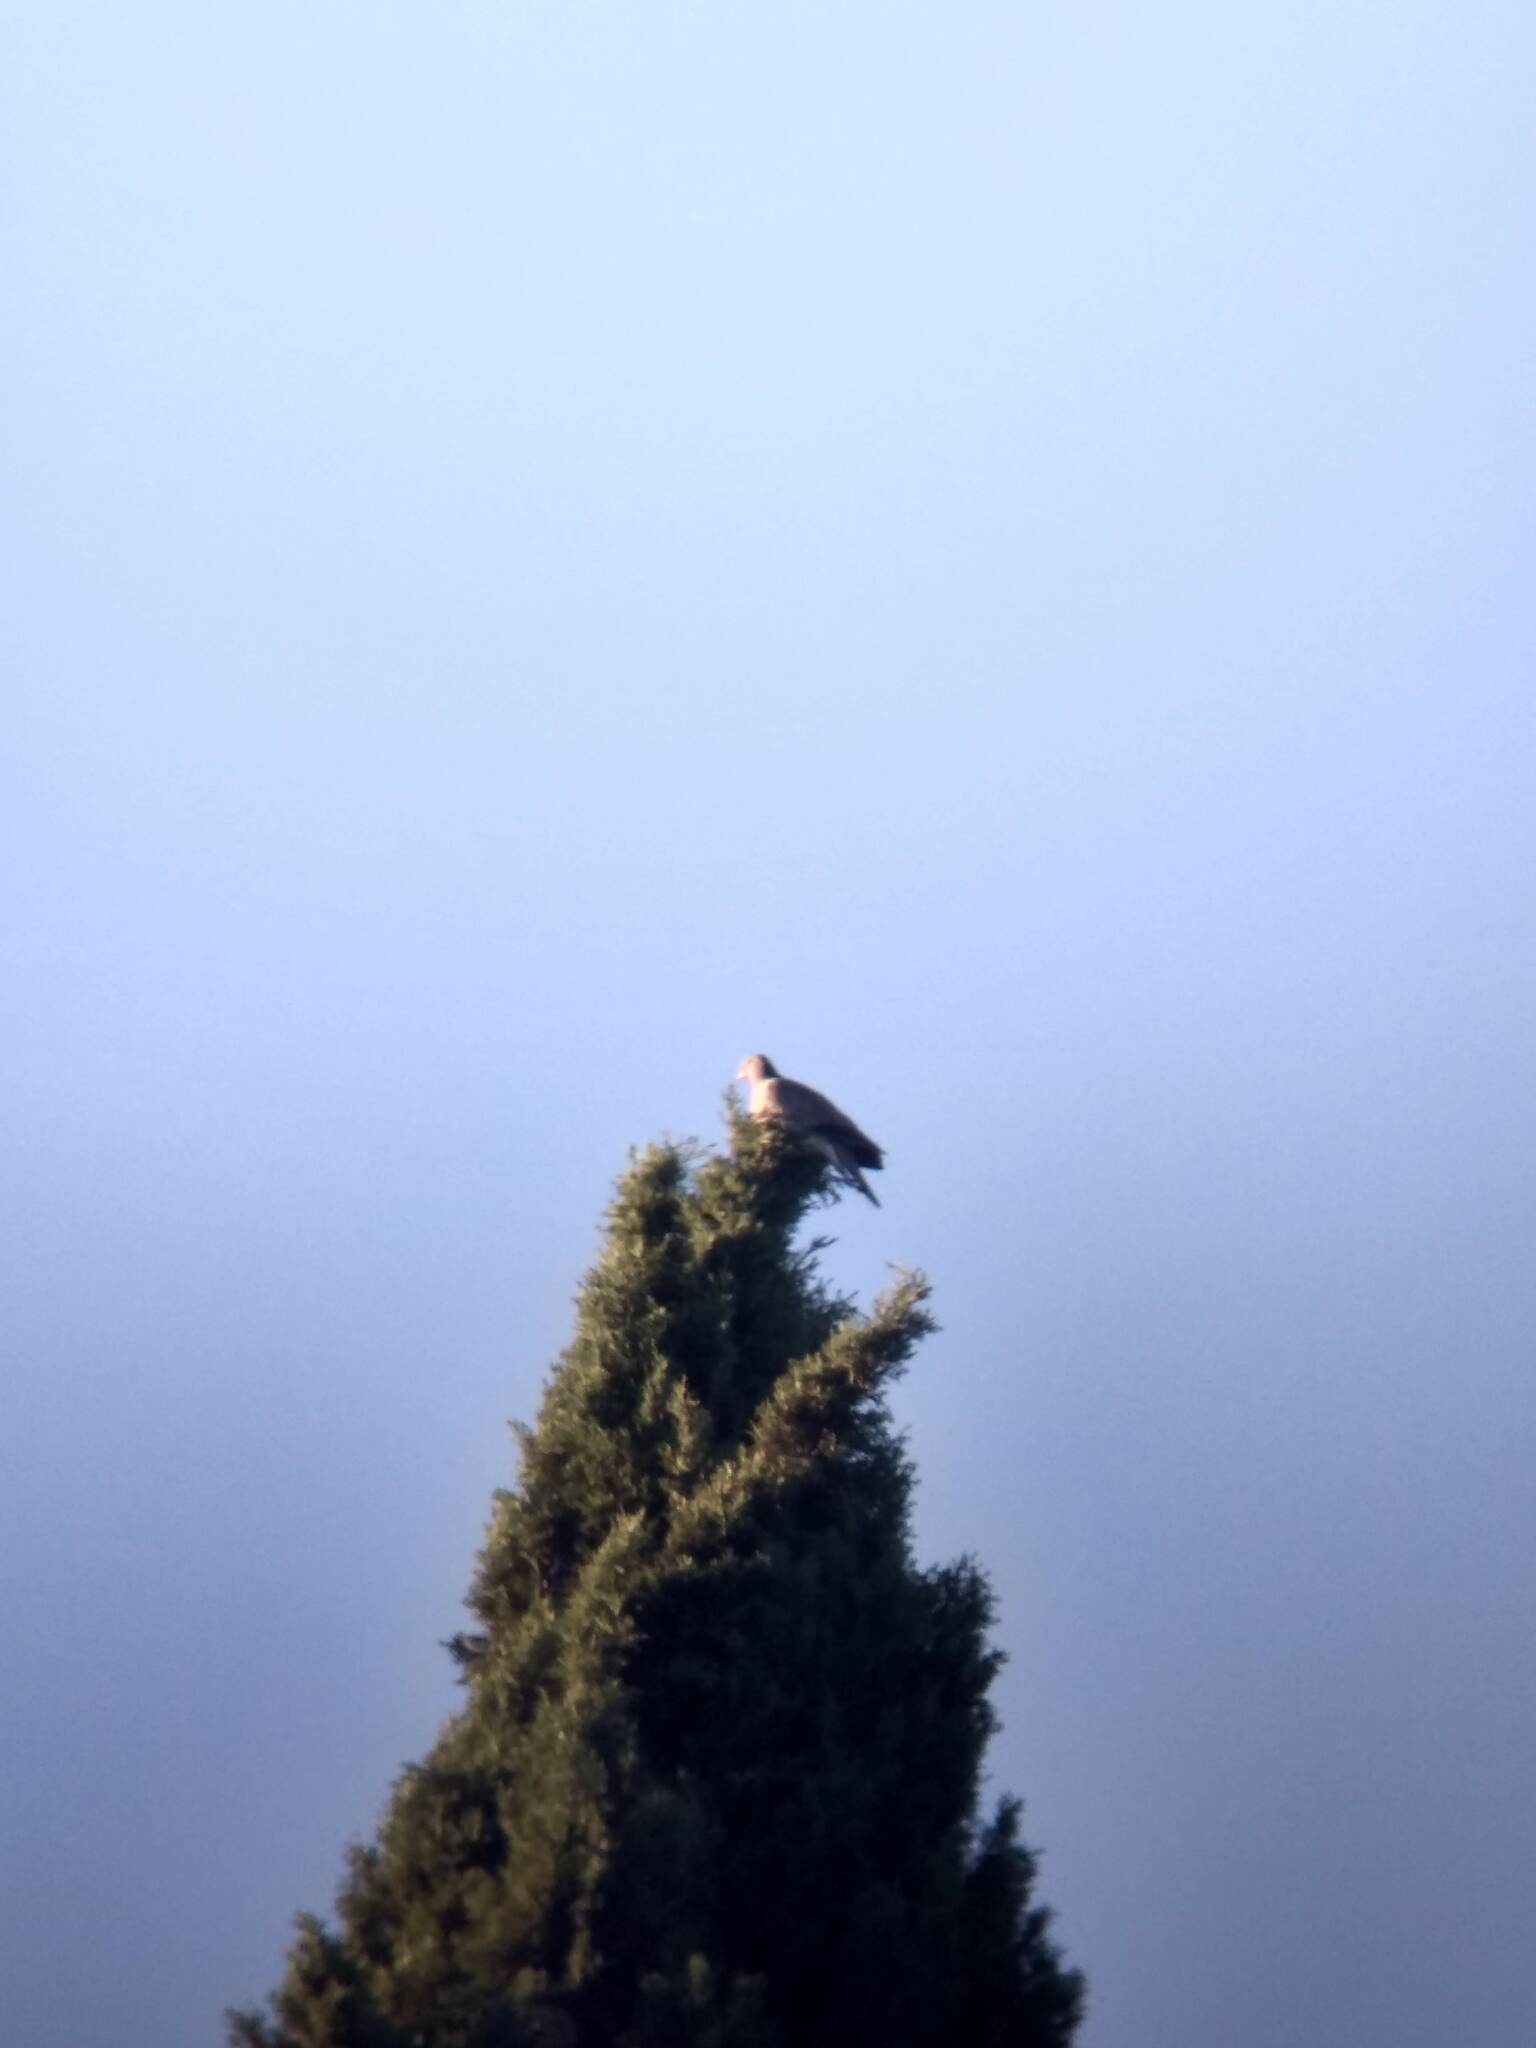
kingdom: Animalia
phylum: Chordata
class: Aves
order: Columbiformes
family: Columbidae
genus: Patagioenas
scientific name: Patagioenas fasciata
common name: Band-tailed pigeon
